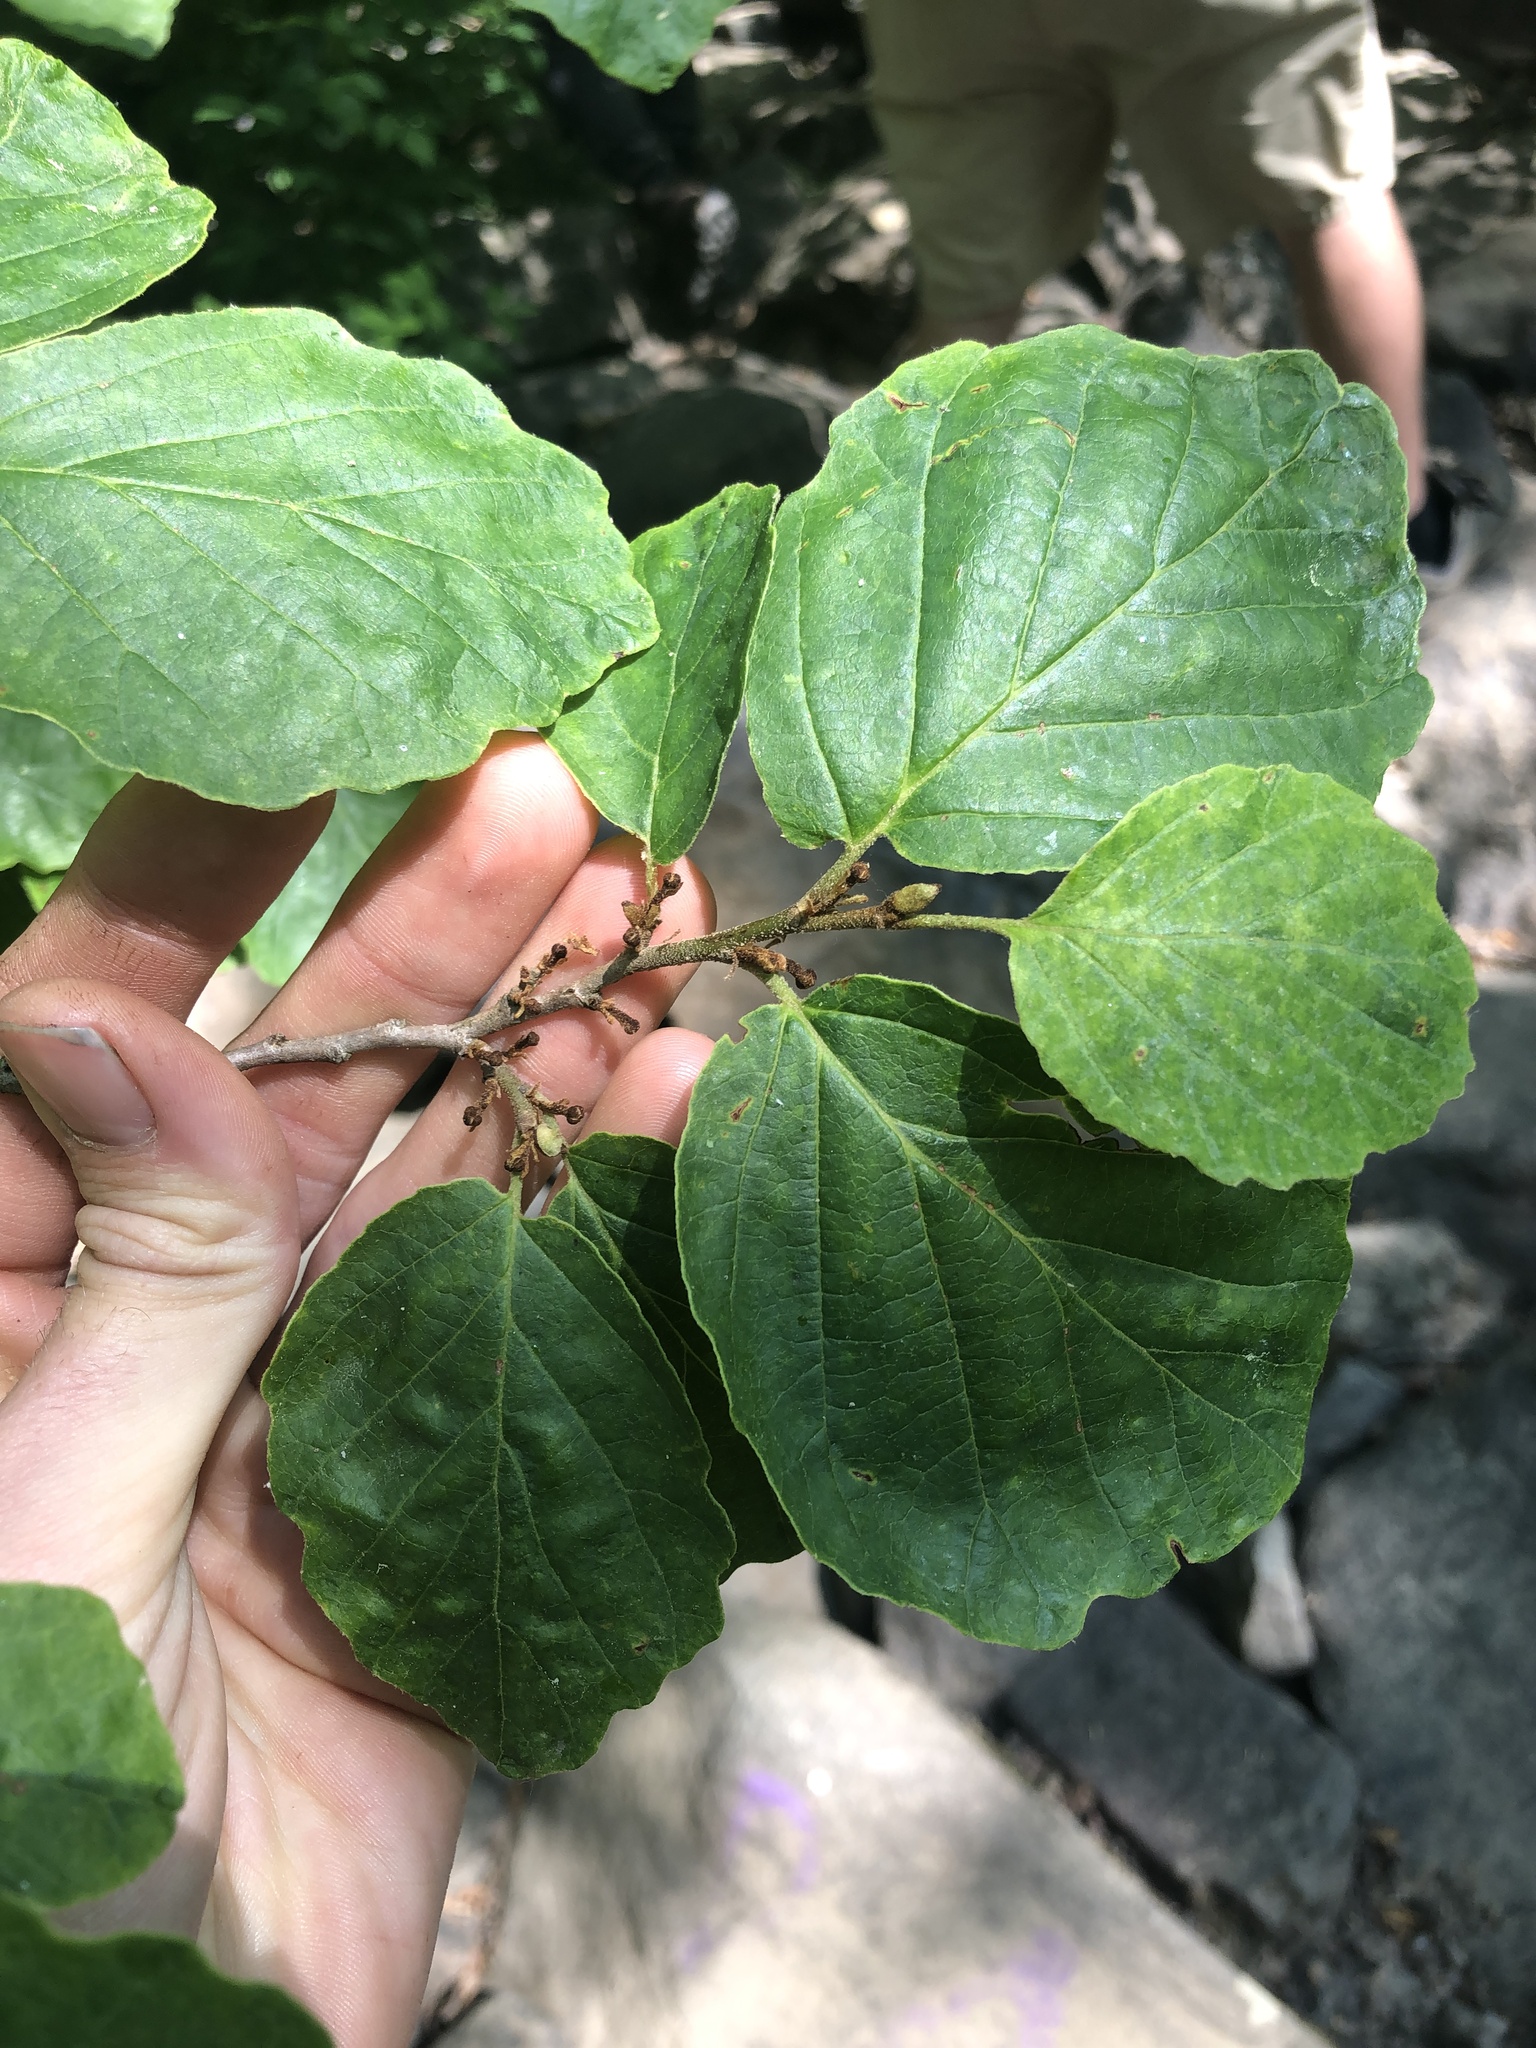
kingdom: Plantae
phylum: Tracheophyta
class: Magnoliopsida
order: Saxifragales
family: Hamamelidaceae
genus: Hamamelis
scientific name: Hamamelis virginiana
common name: Witch-hazel
